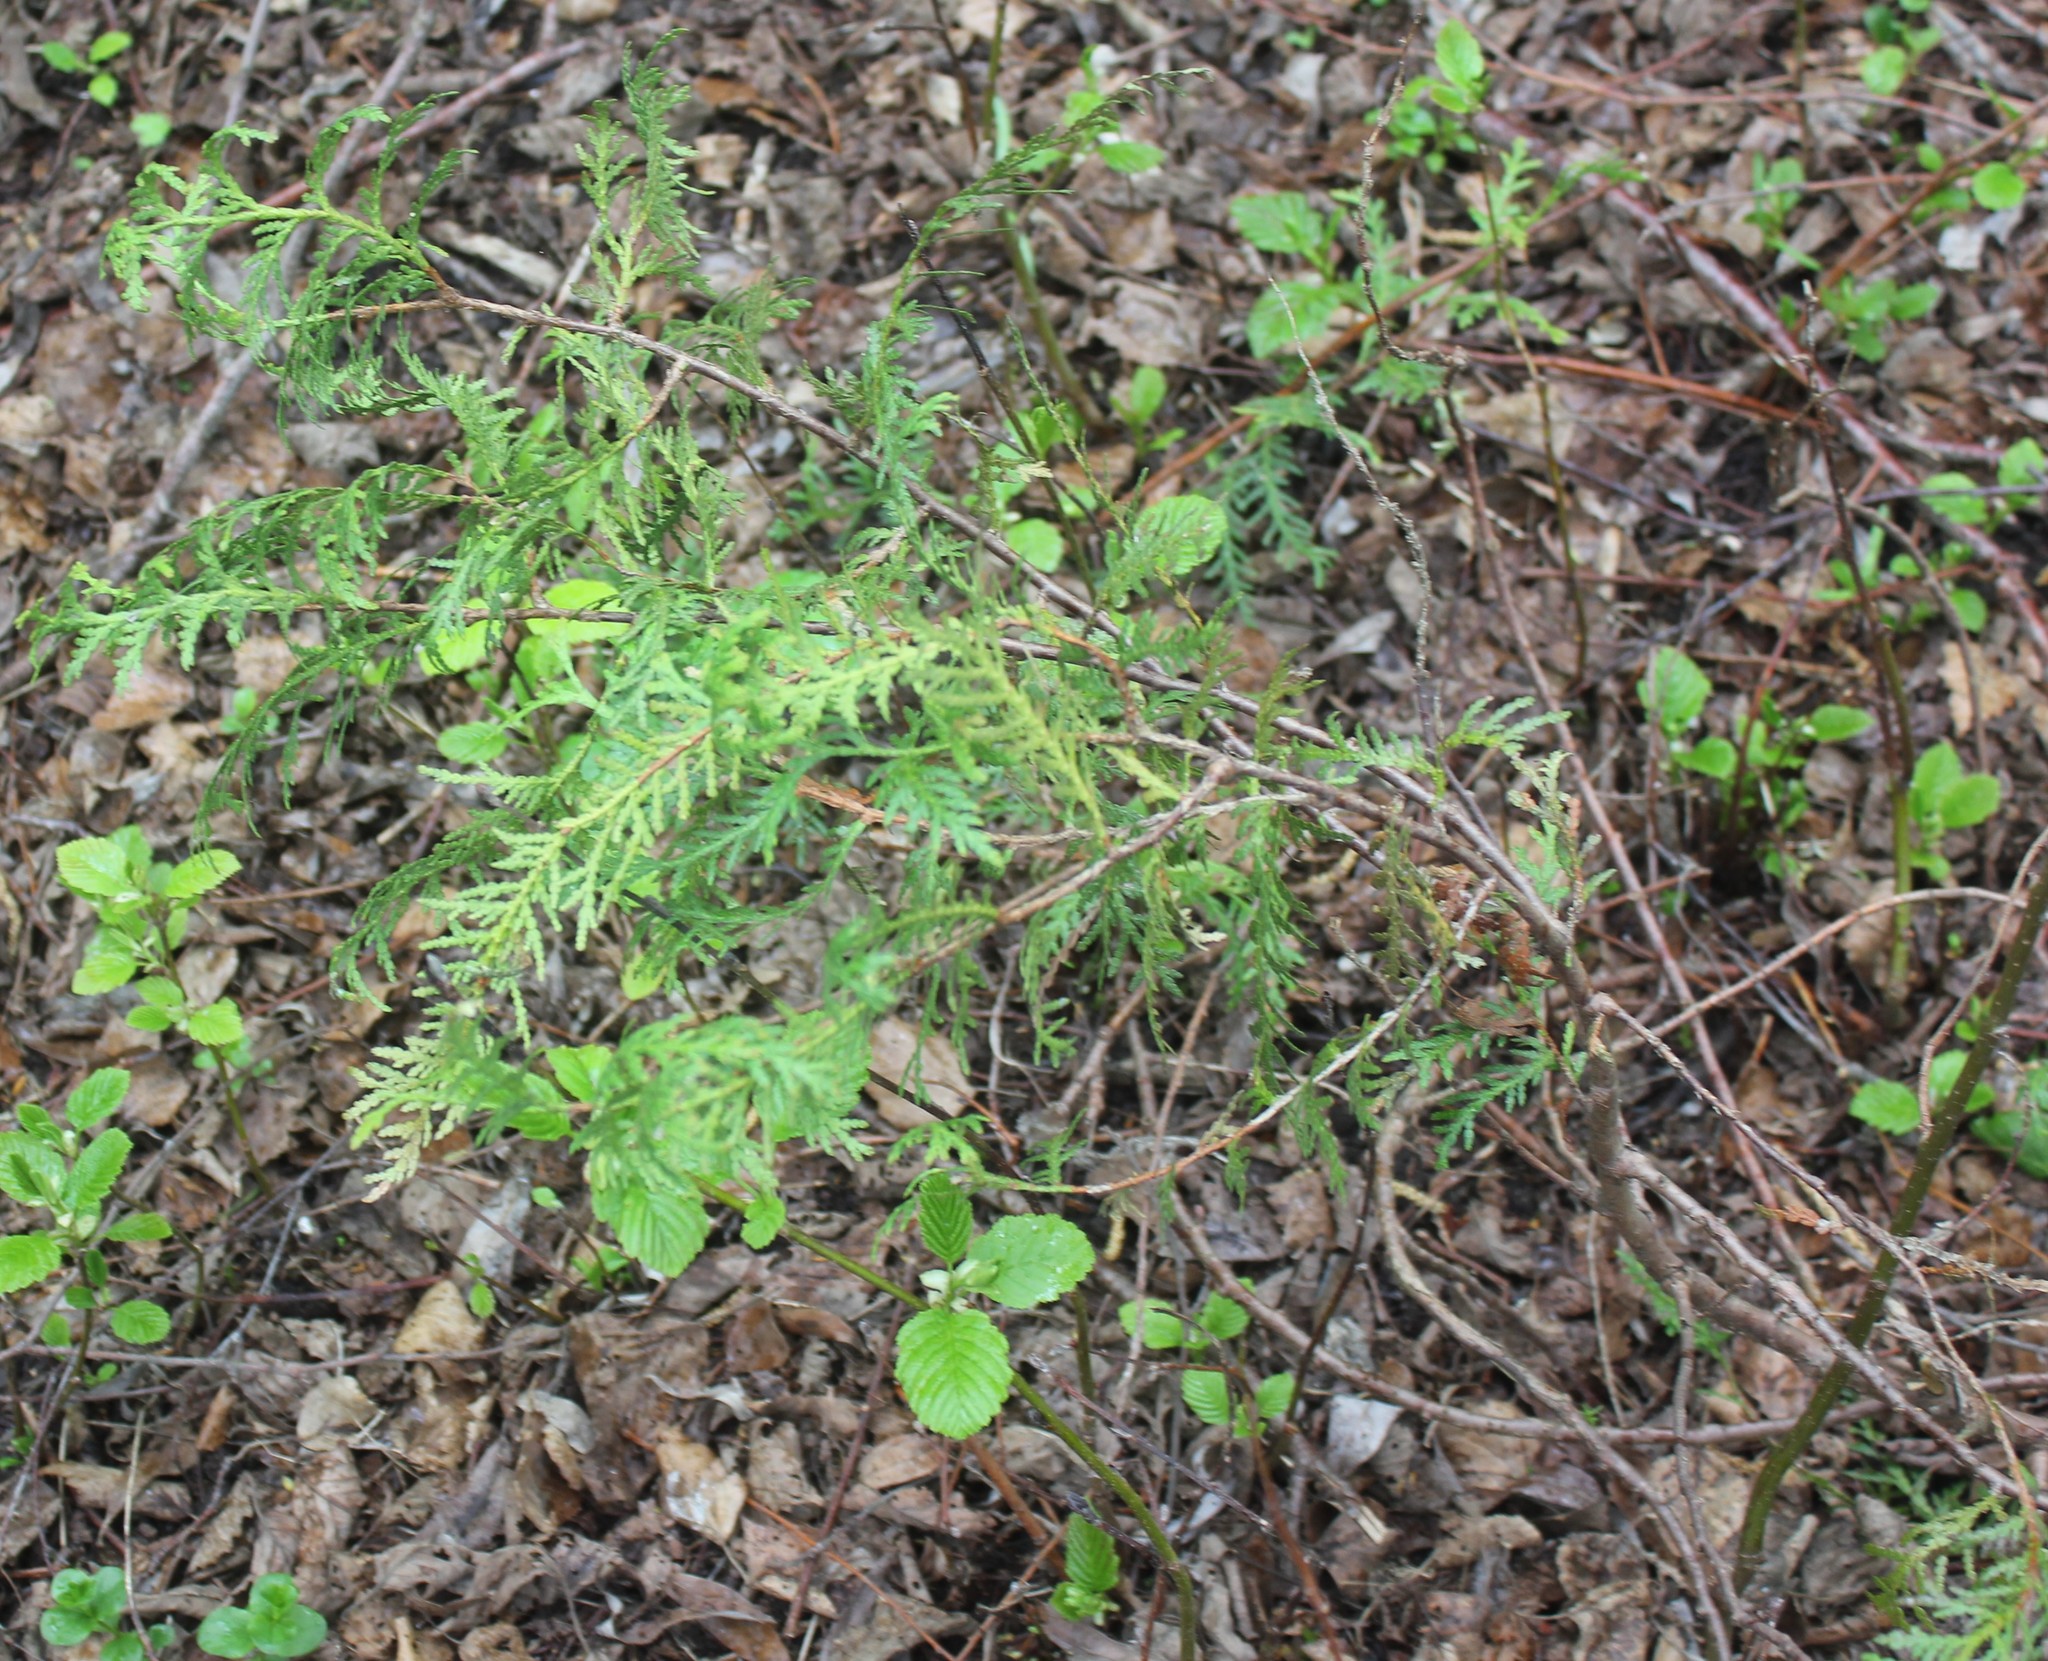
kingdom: Plantae
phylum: Tracheophyta
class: Pinopsida
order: Pinales
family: Cupressaceae
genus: Thuja
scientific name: Thuja occidentalis
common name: Northern white-cedar
